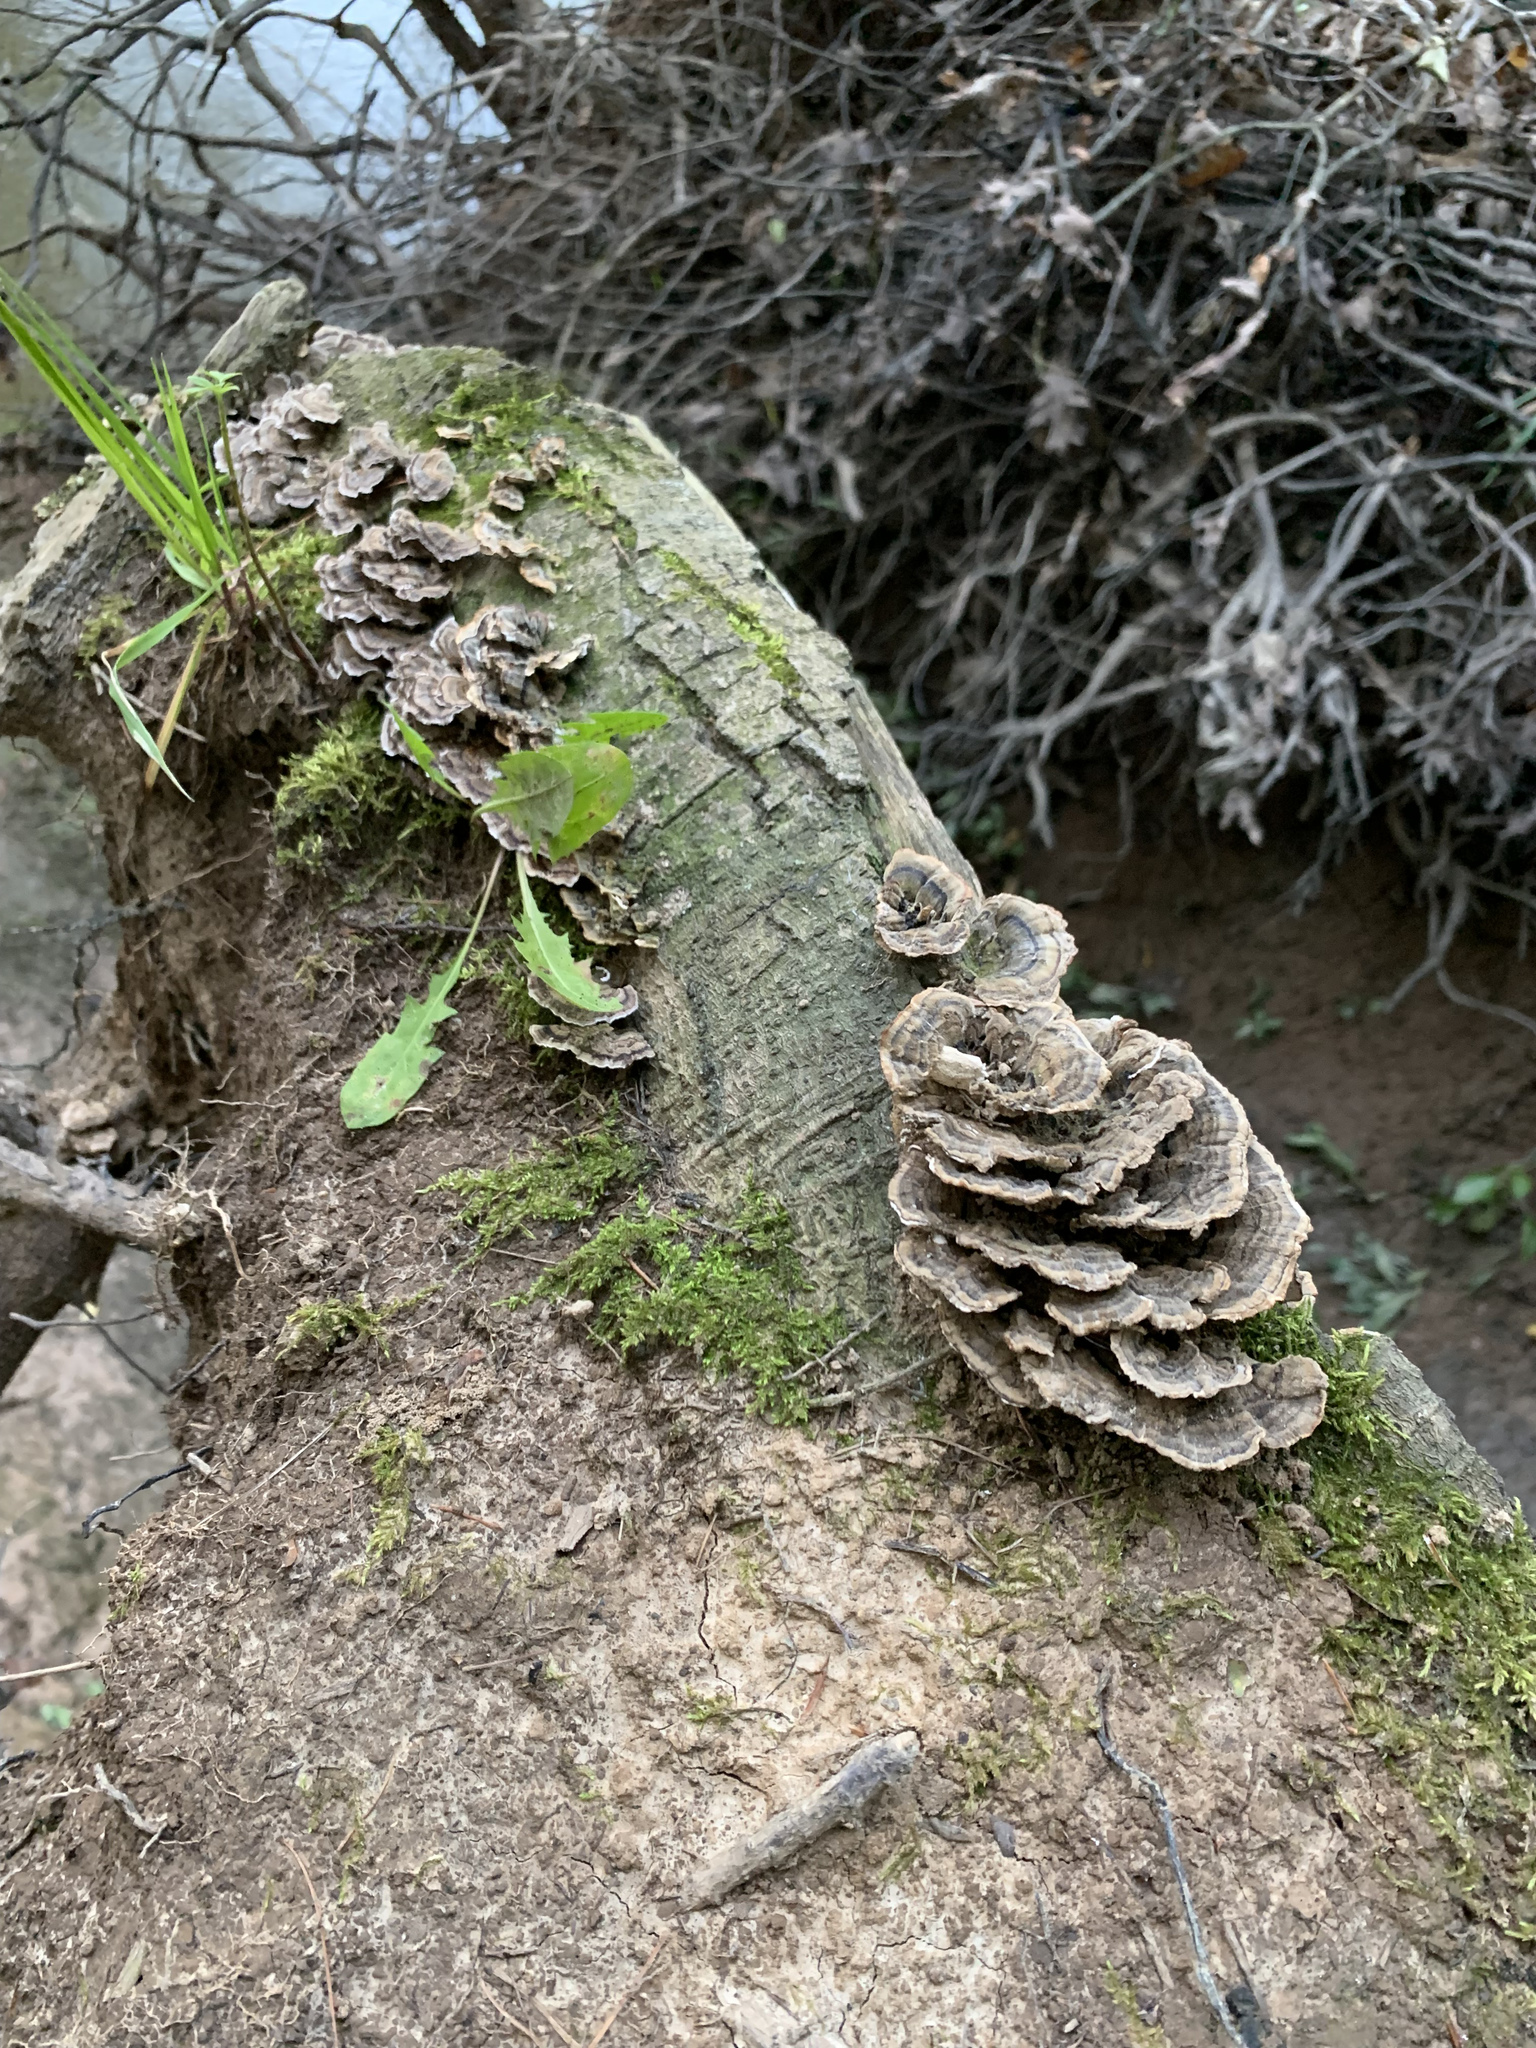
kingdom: Fungi
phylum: Basidiomycota
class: Agaricomycetes
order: Polyporales
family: Polyporaceae
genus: Trametes
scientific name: Trametes versicolor
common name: Turkeytail
